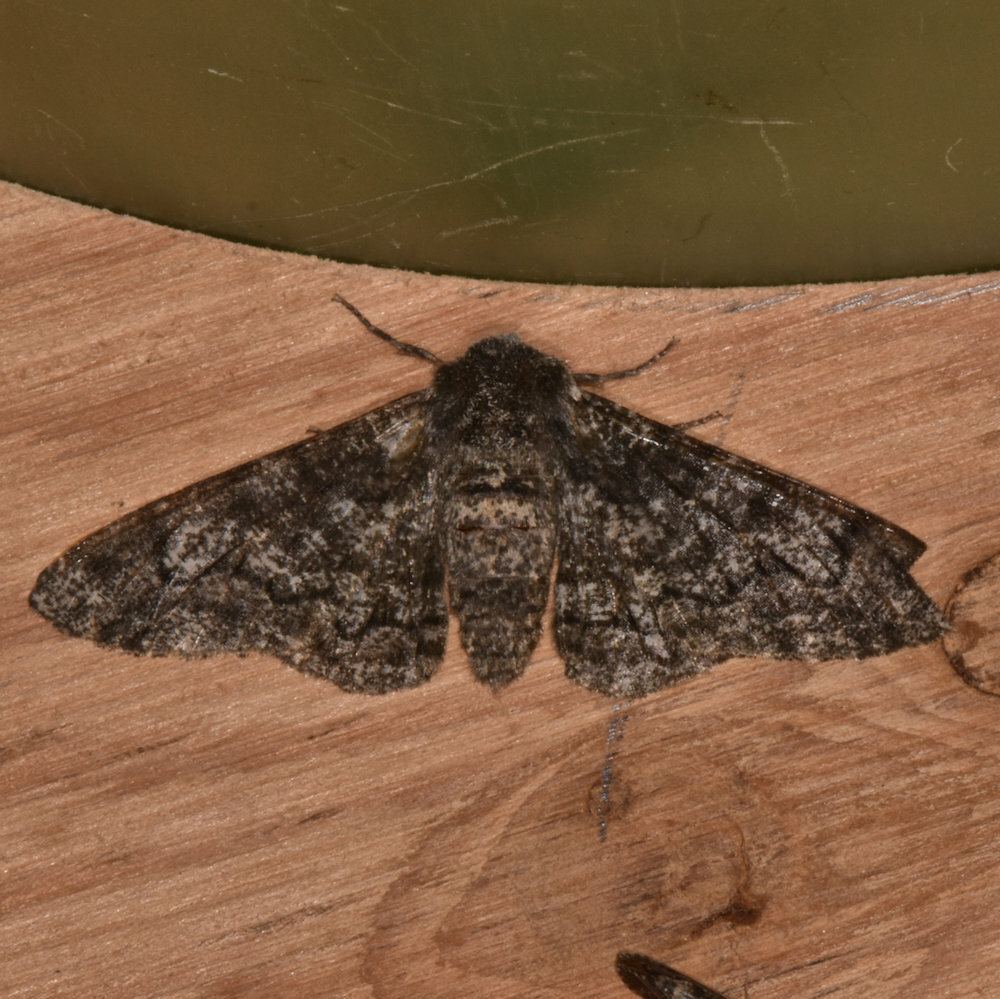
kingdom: Animalia
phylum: Arthropoda
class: Insecta
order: Lepidoptera
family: Geometridae
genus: Biston
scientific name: Biston betularia
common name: Peppered moth
